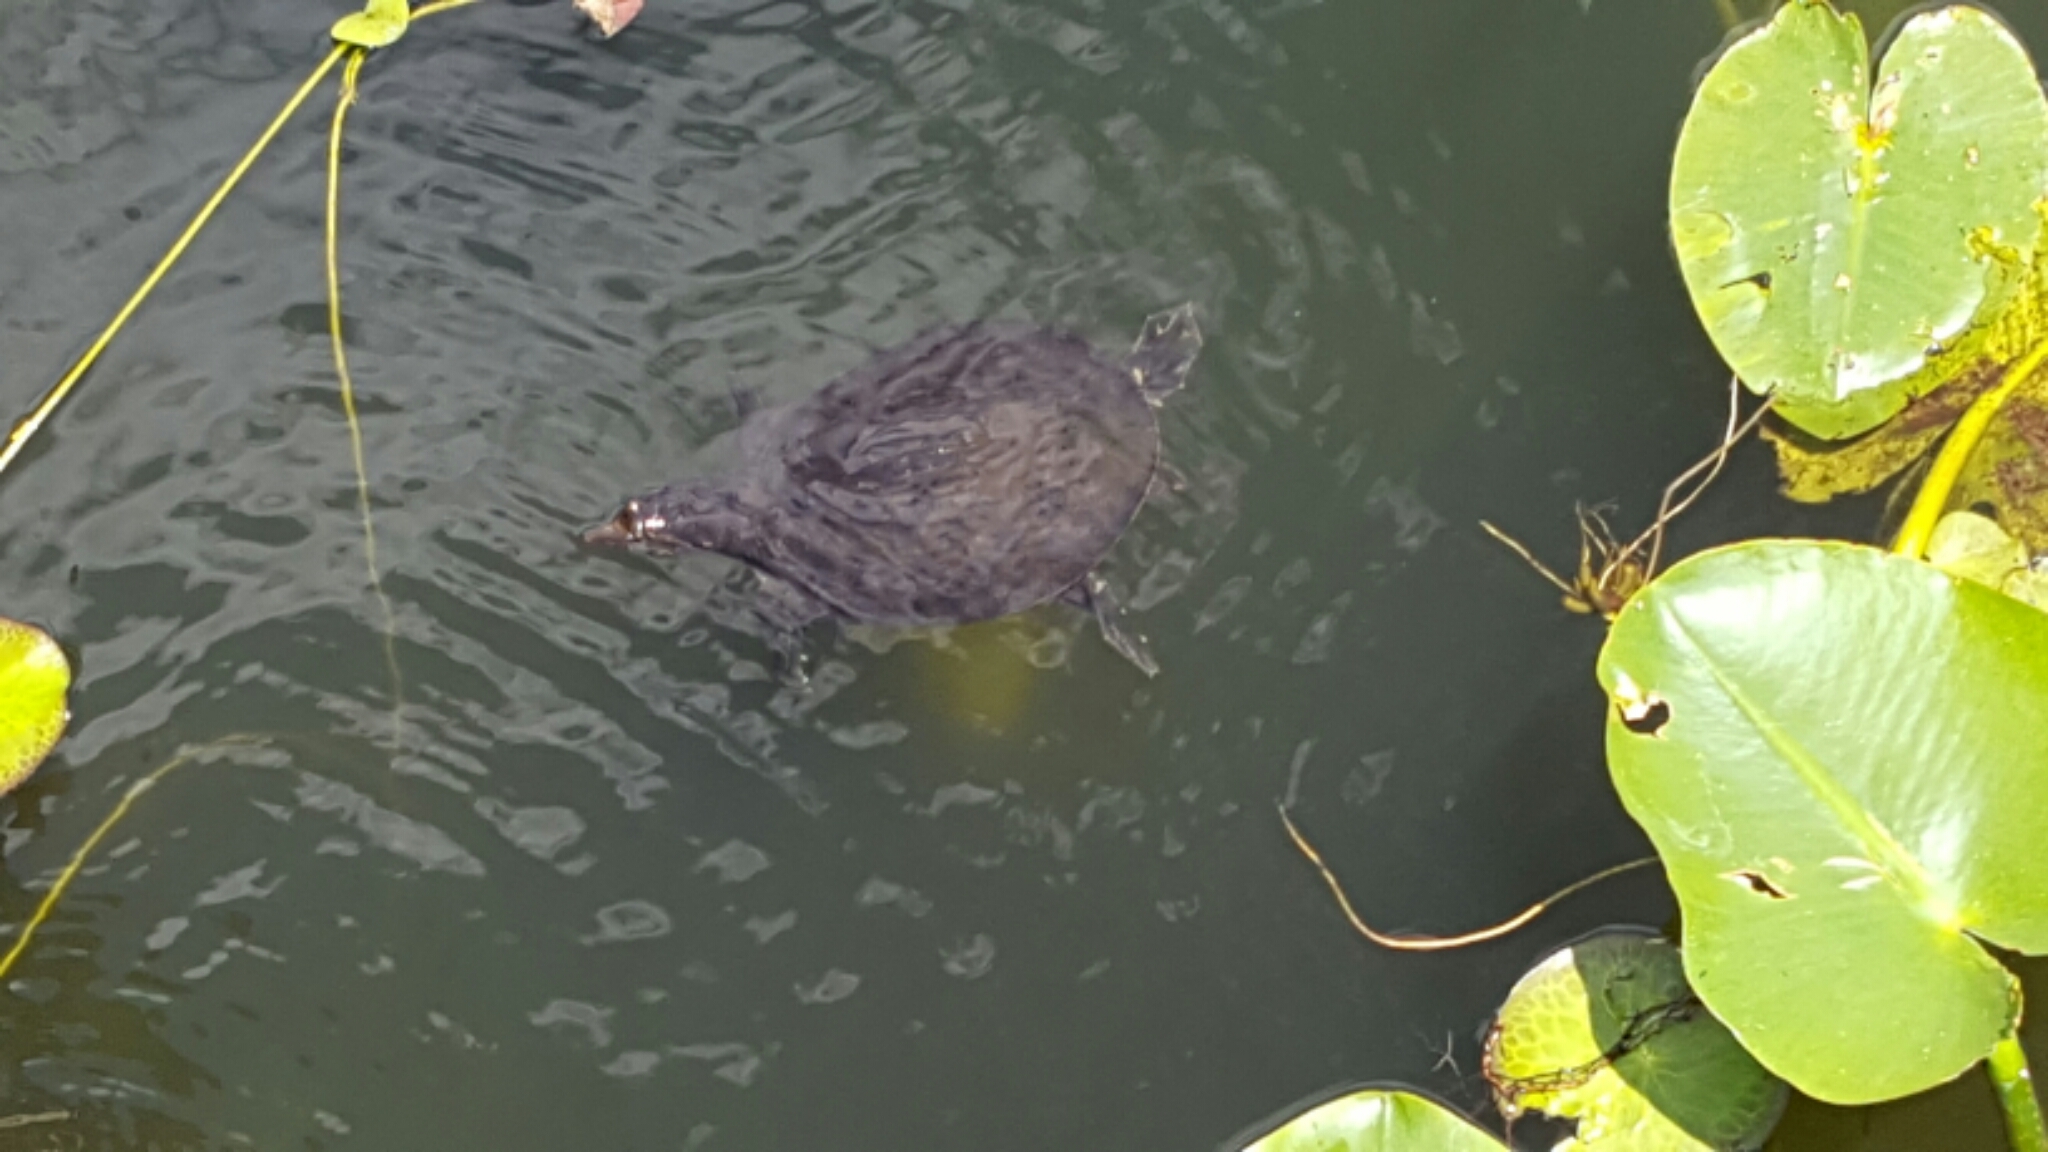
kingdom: Animalia
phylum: Chordata
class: Testudines
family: Trionychidae
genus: Apalone
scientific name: Apalone ferox
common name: Florida softshell turtle
